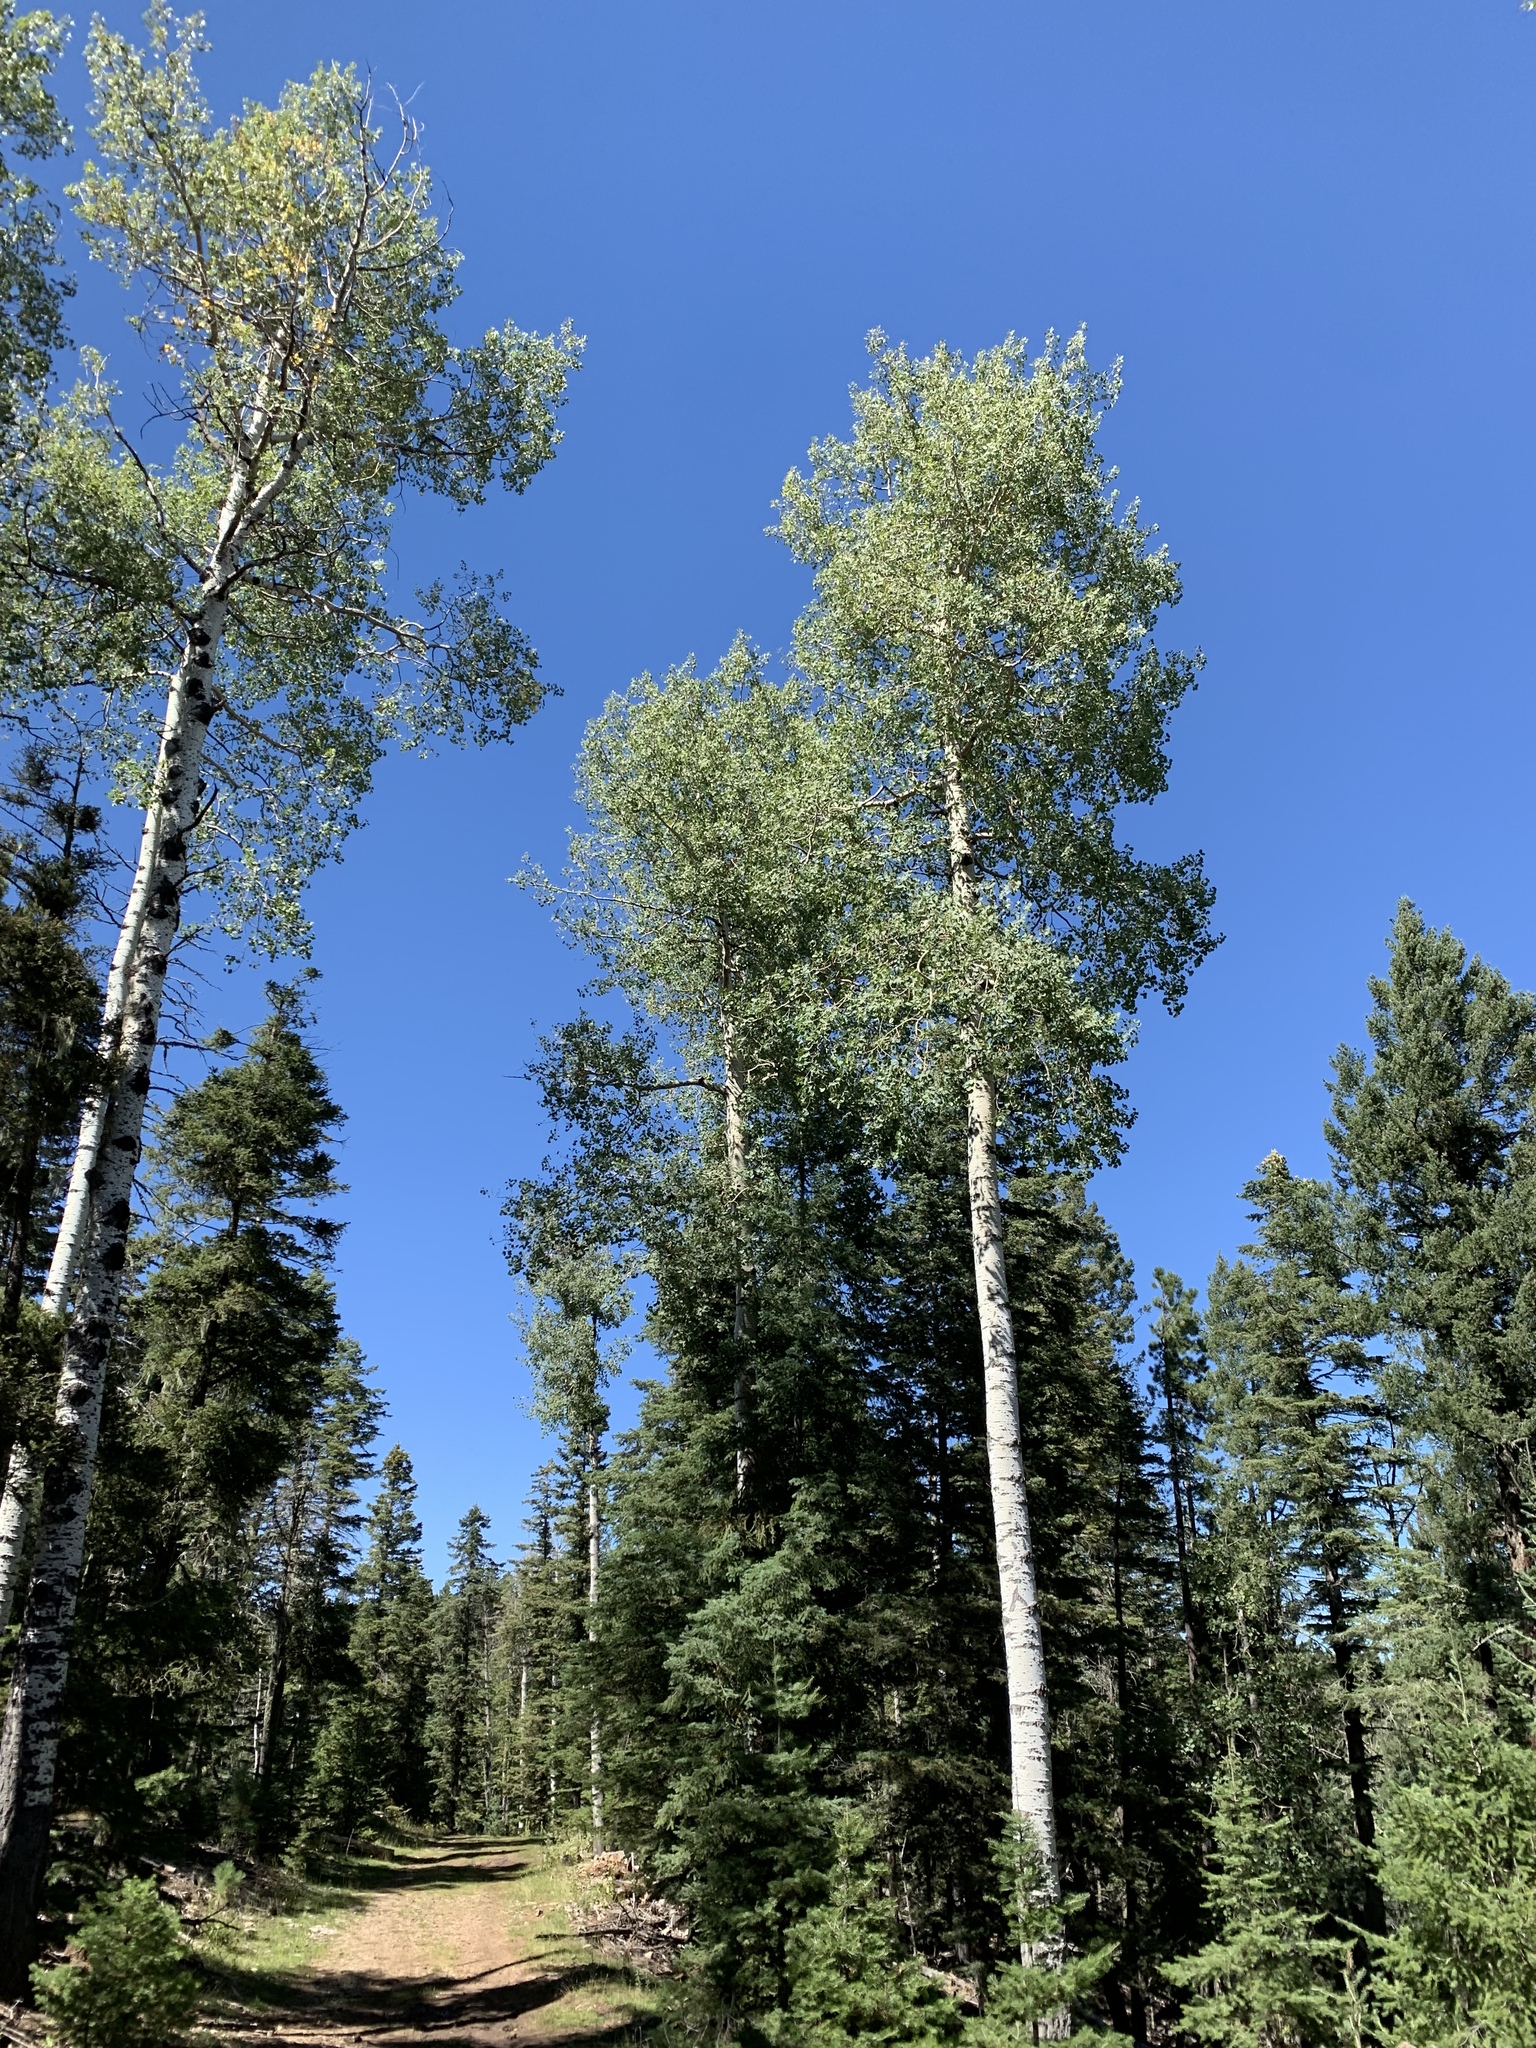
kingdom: Plantae
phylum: Tracheophyta
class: Magnoliopsida
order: Malpighiales
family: Salicaceae
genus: Populus
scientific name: Populus tremuloides
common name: Quaking aspen
